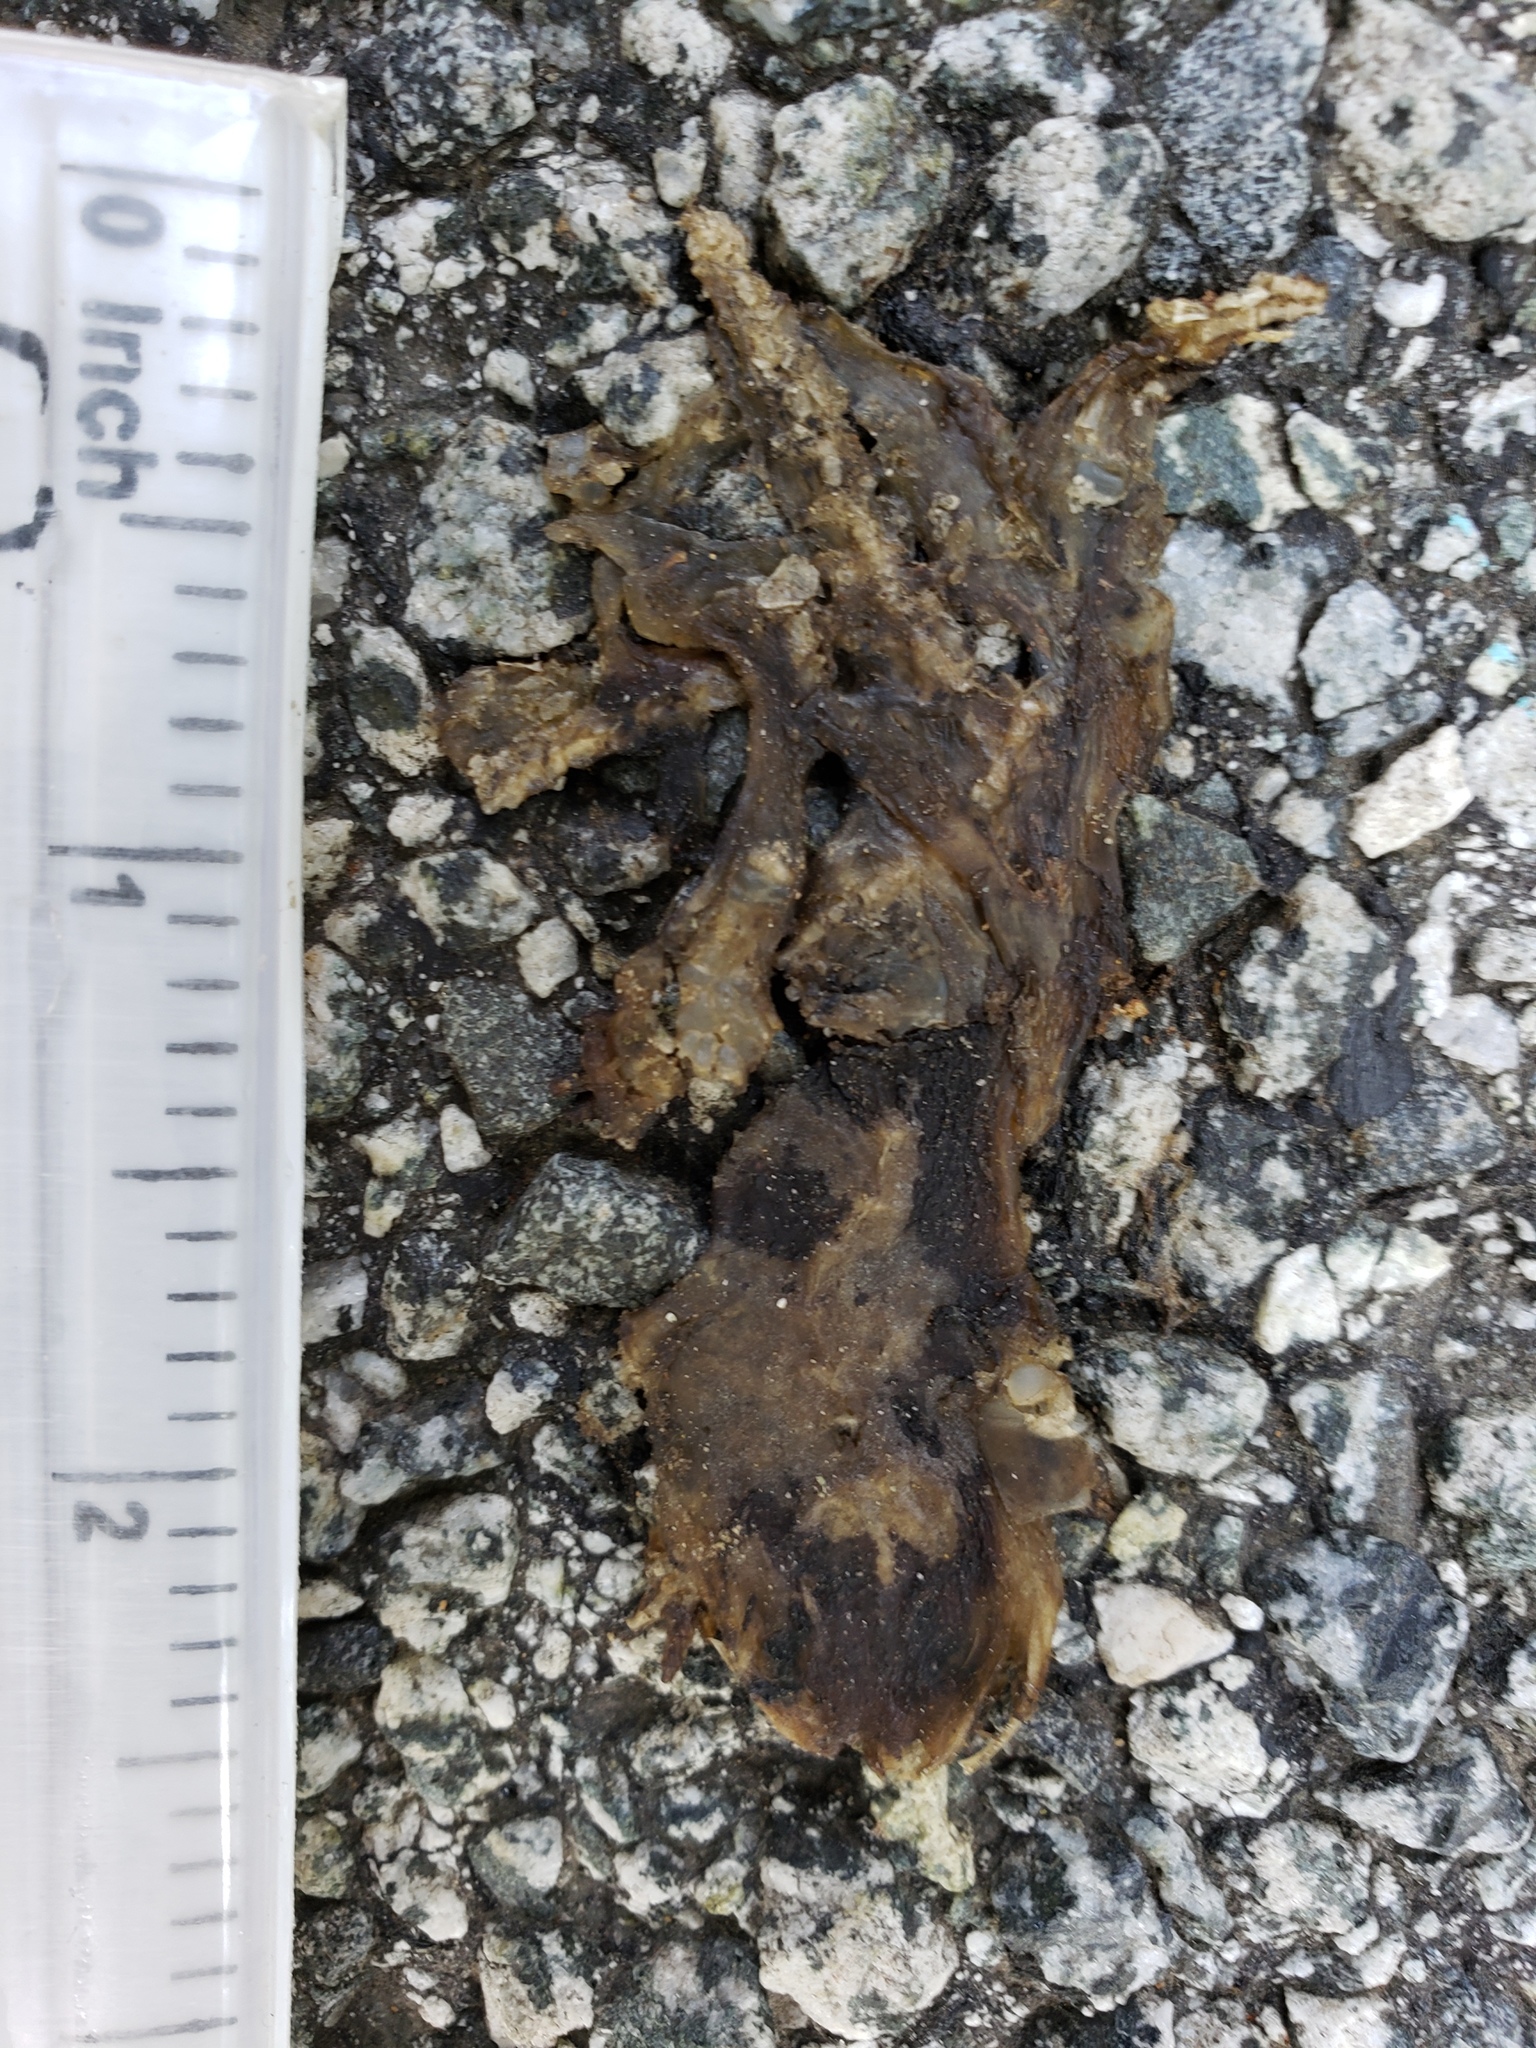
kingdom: Animalia
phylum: Chordata
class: Amphibia
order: Caudata
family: Salamandridae
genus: Taricha
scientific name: Taricha
